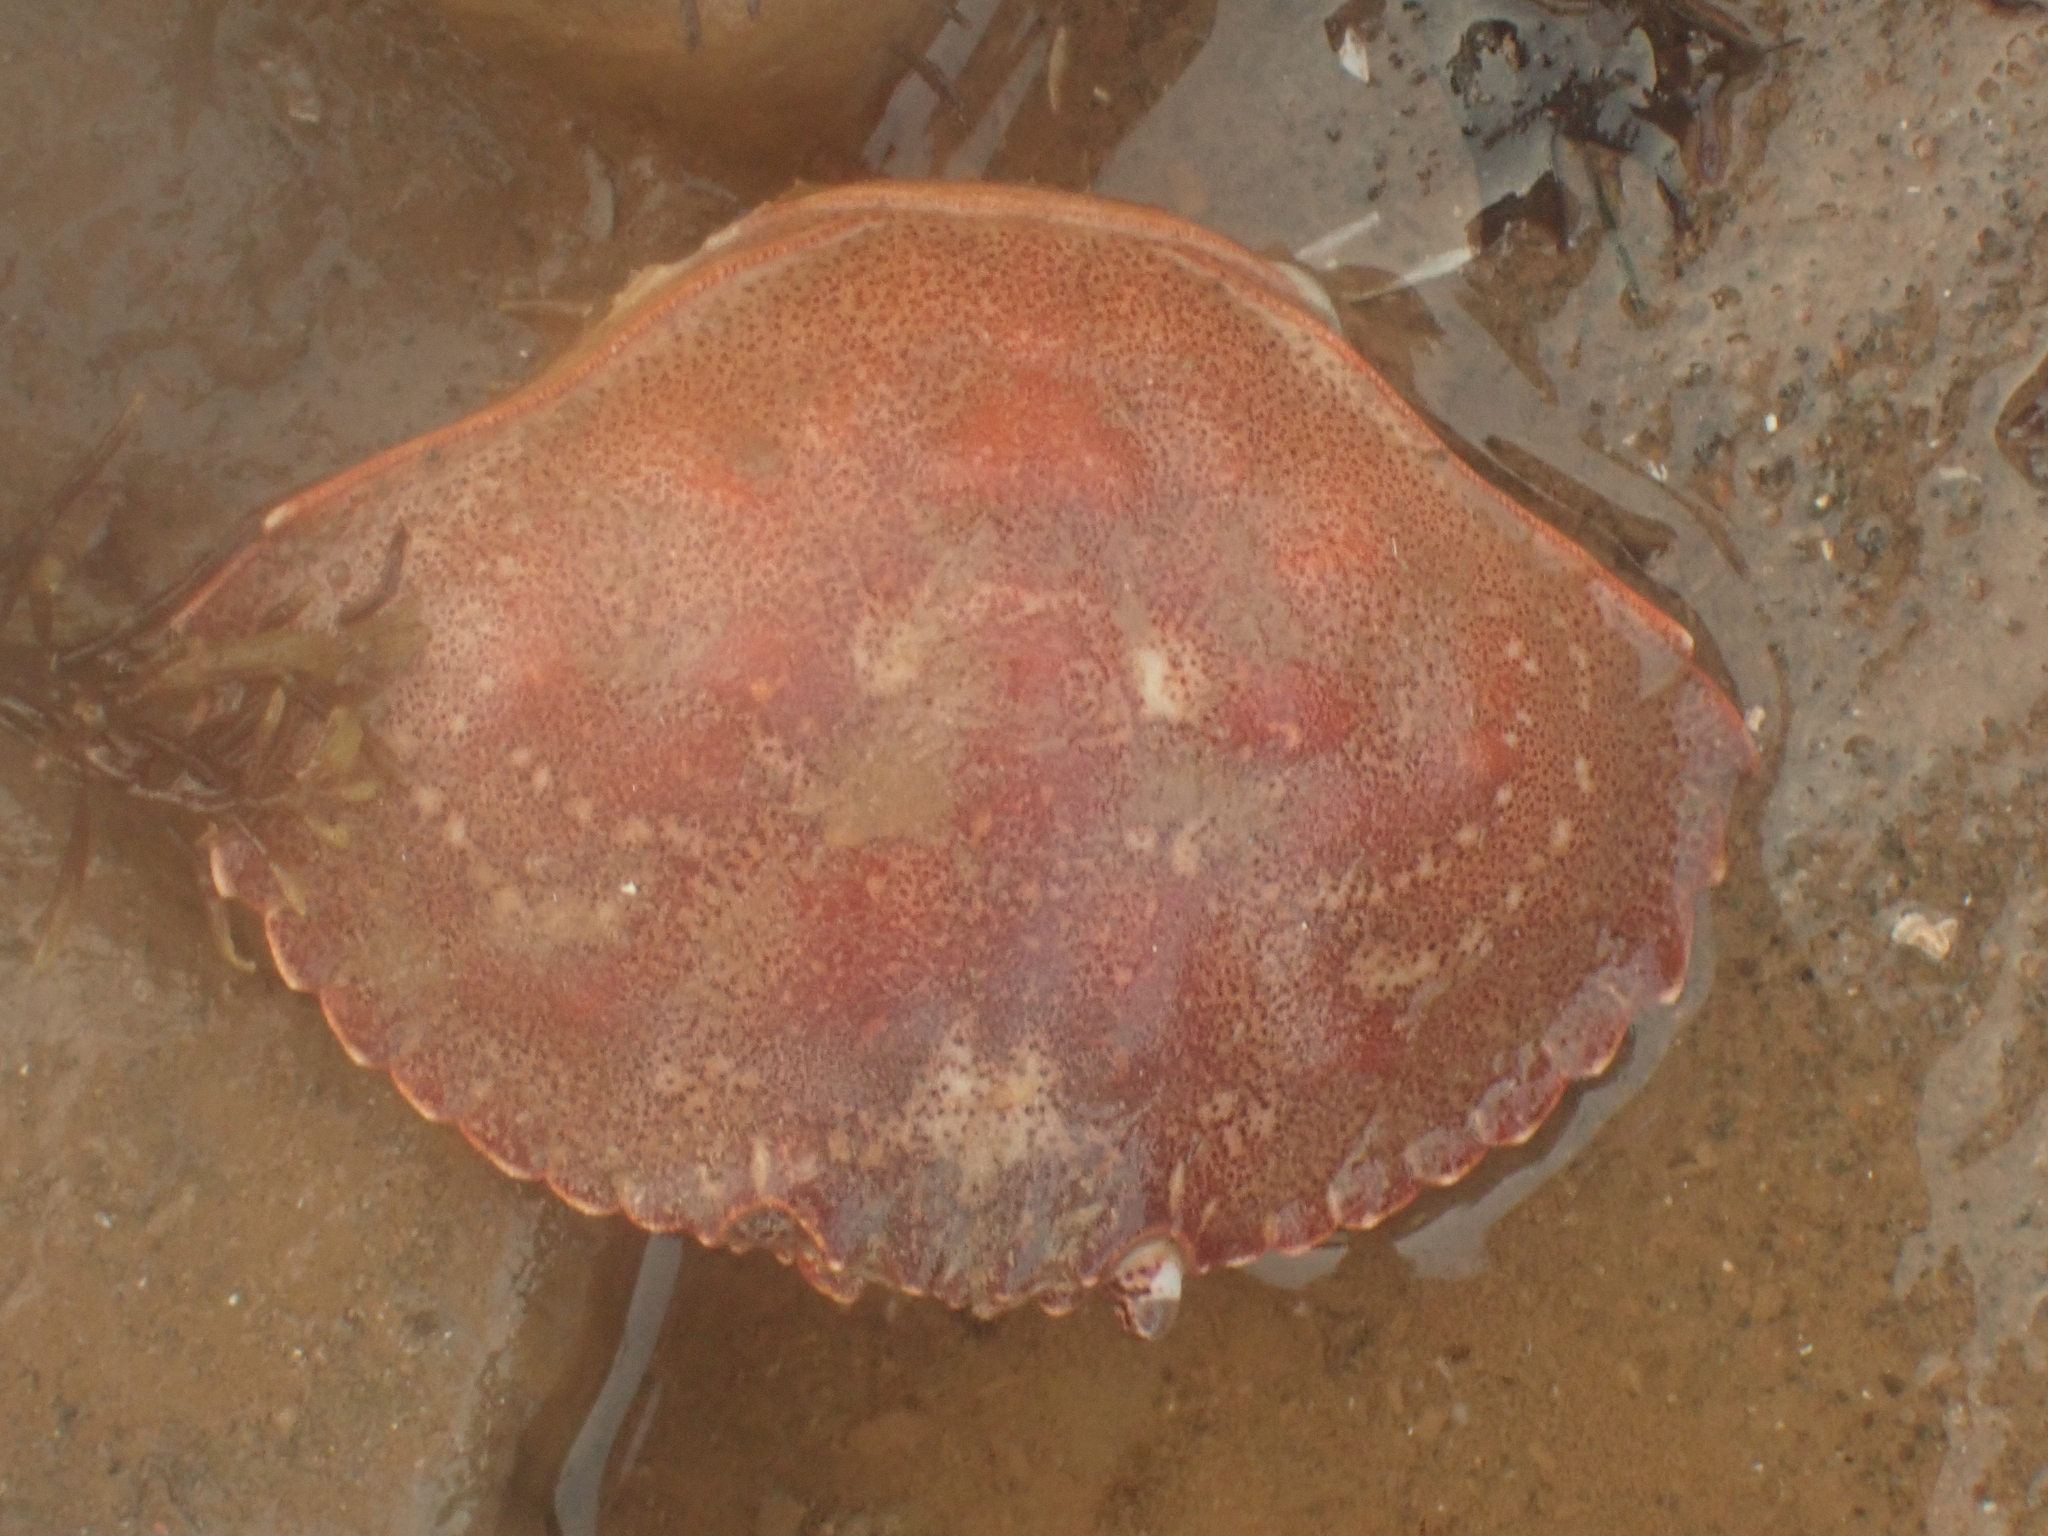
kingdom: Animalia
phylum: Arthropoda
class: Malacostraca
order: Decapoda
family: Cancridae
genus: Cancer
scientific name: Cancer irroratus
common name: Atlantic rock crab
